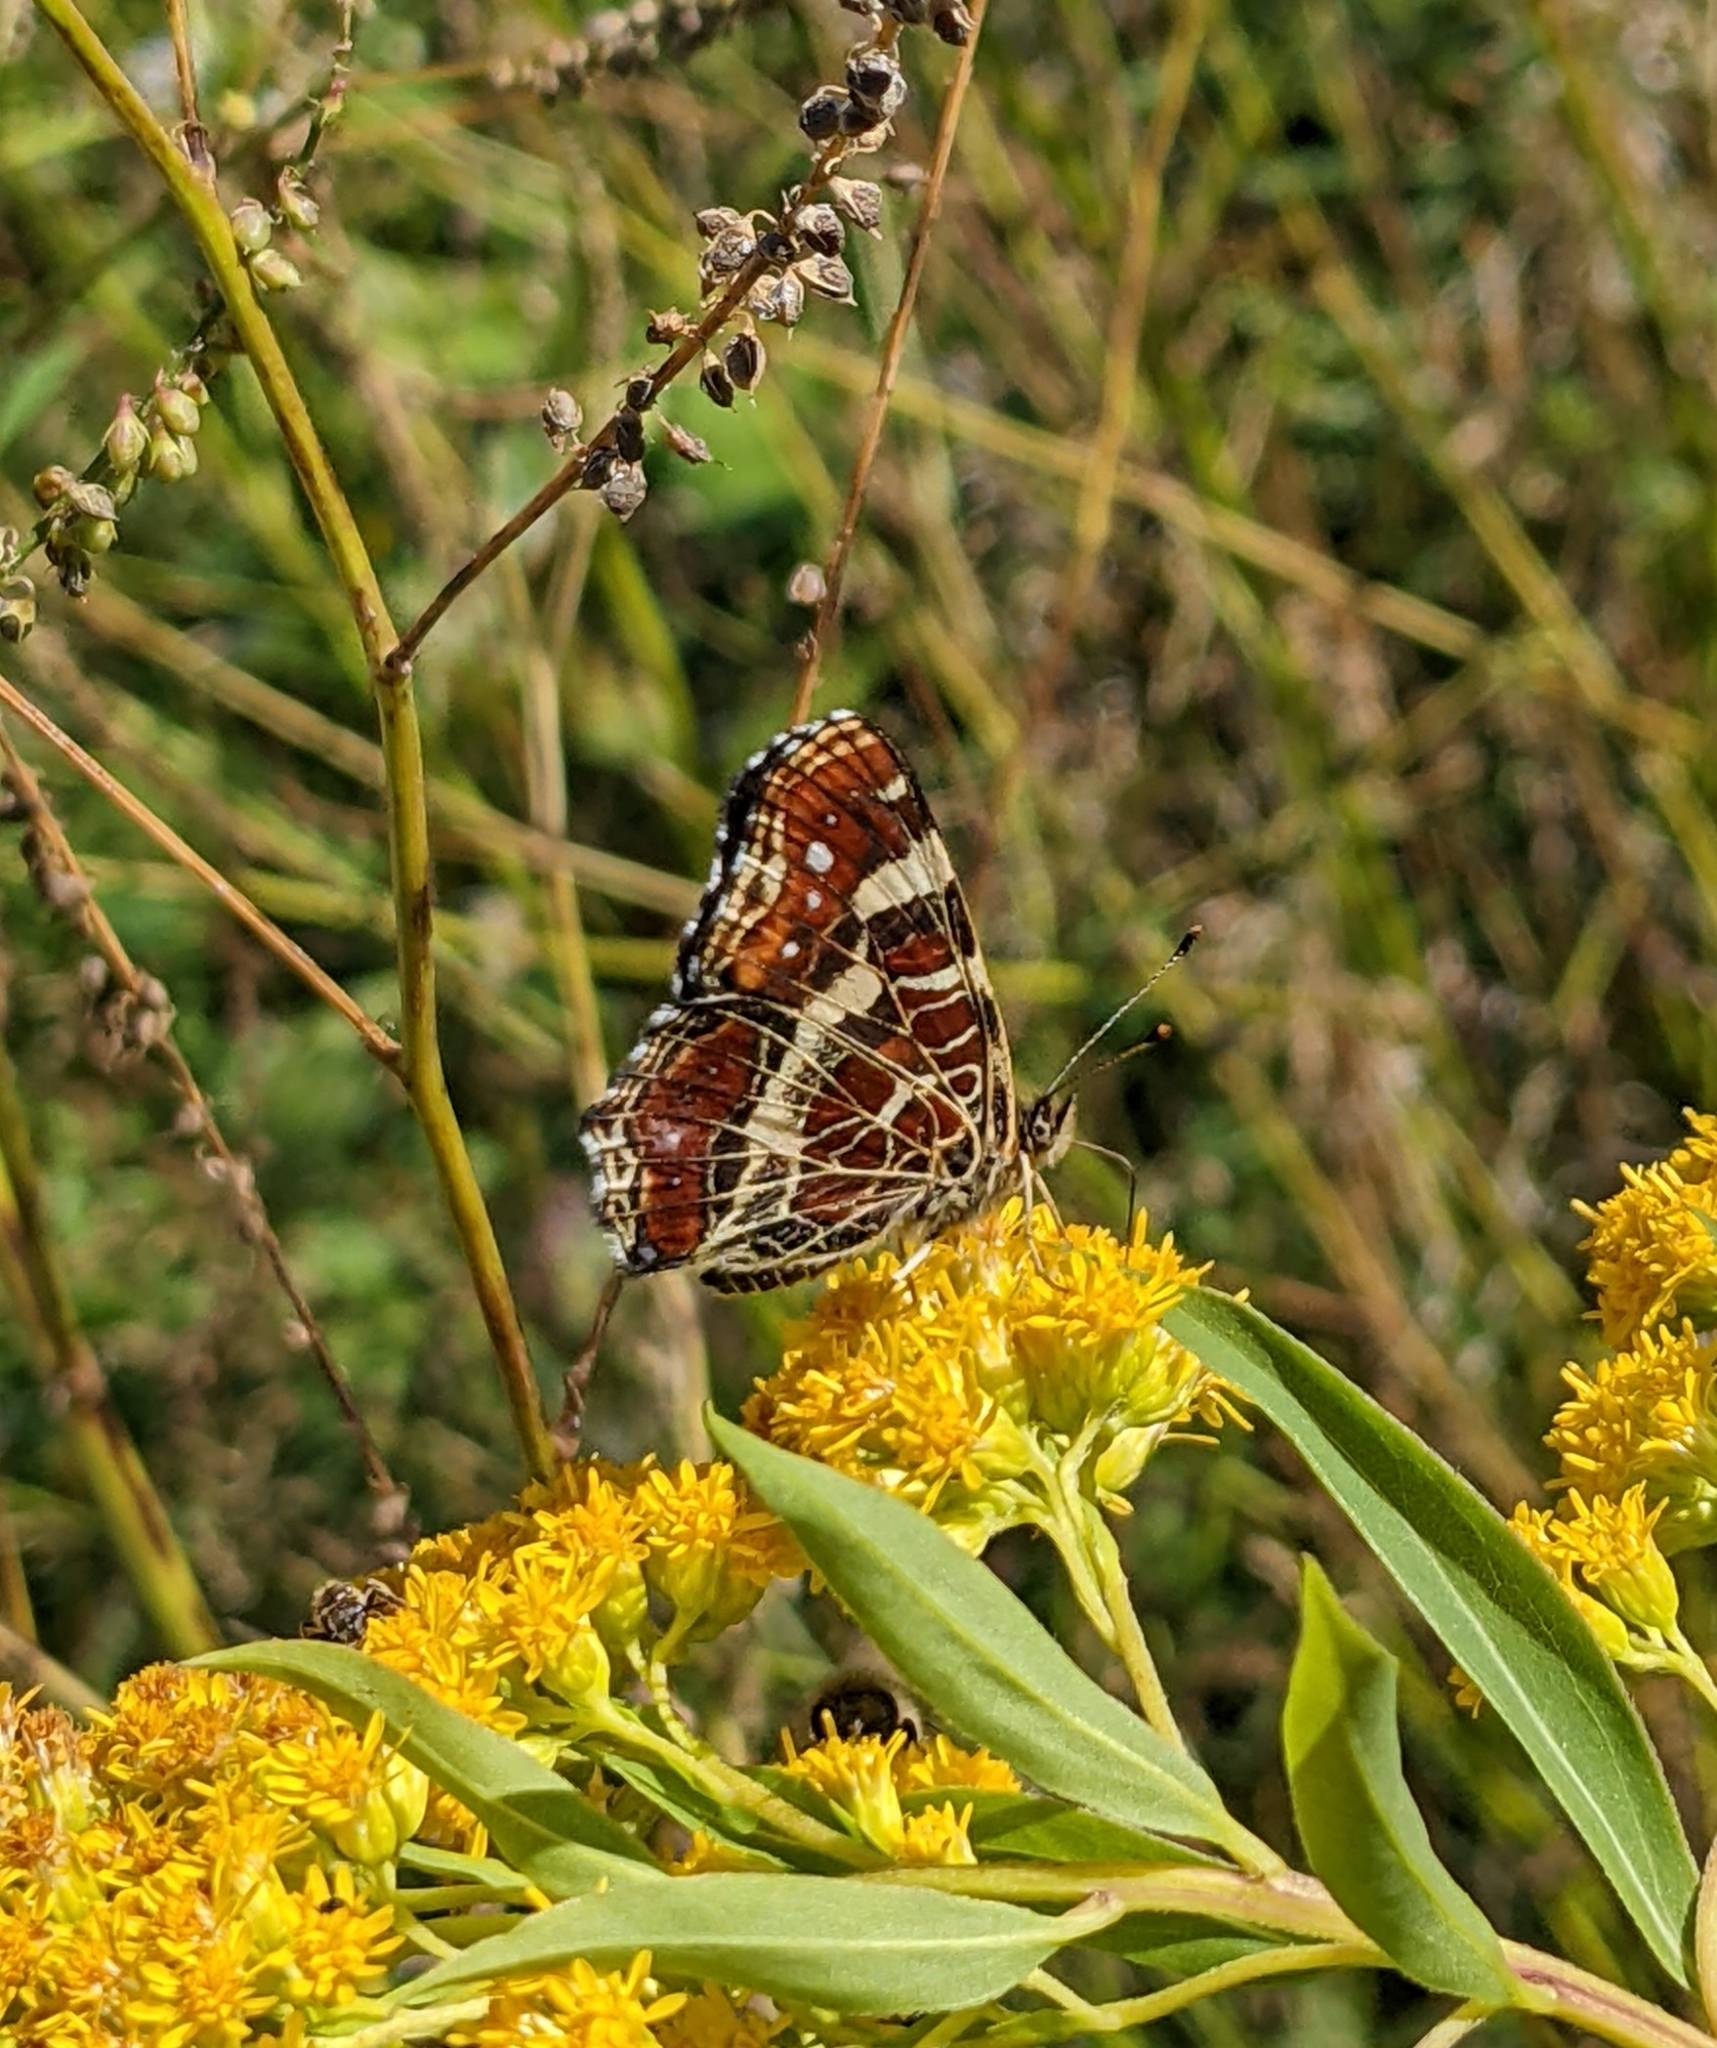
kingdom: Animalia
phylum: Arthropoda
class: Insecta
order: Lepidoptera
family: Nymphalidae
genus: Araschnia
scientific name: Araschnia levana
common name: Map butterfly
